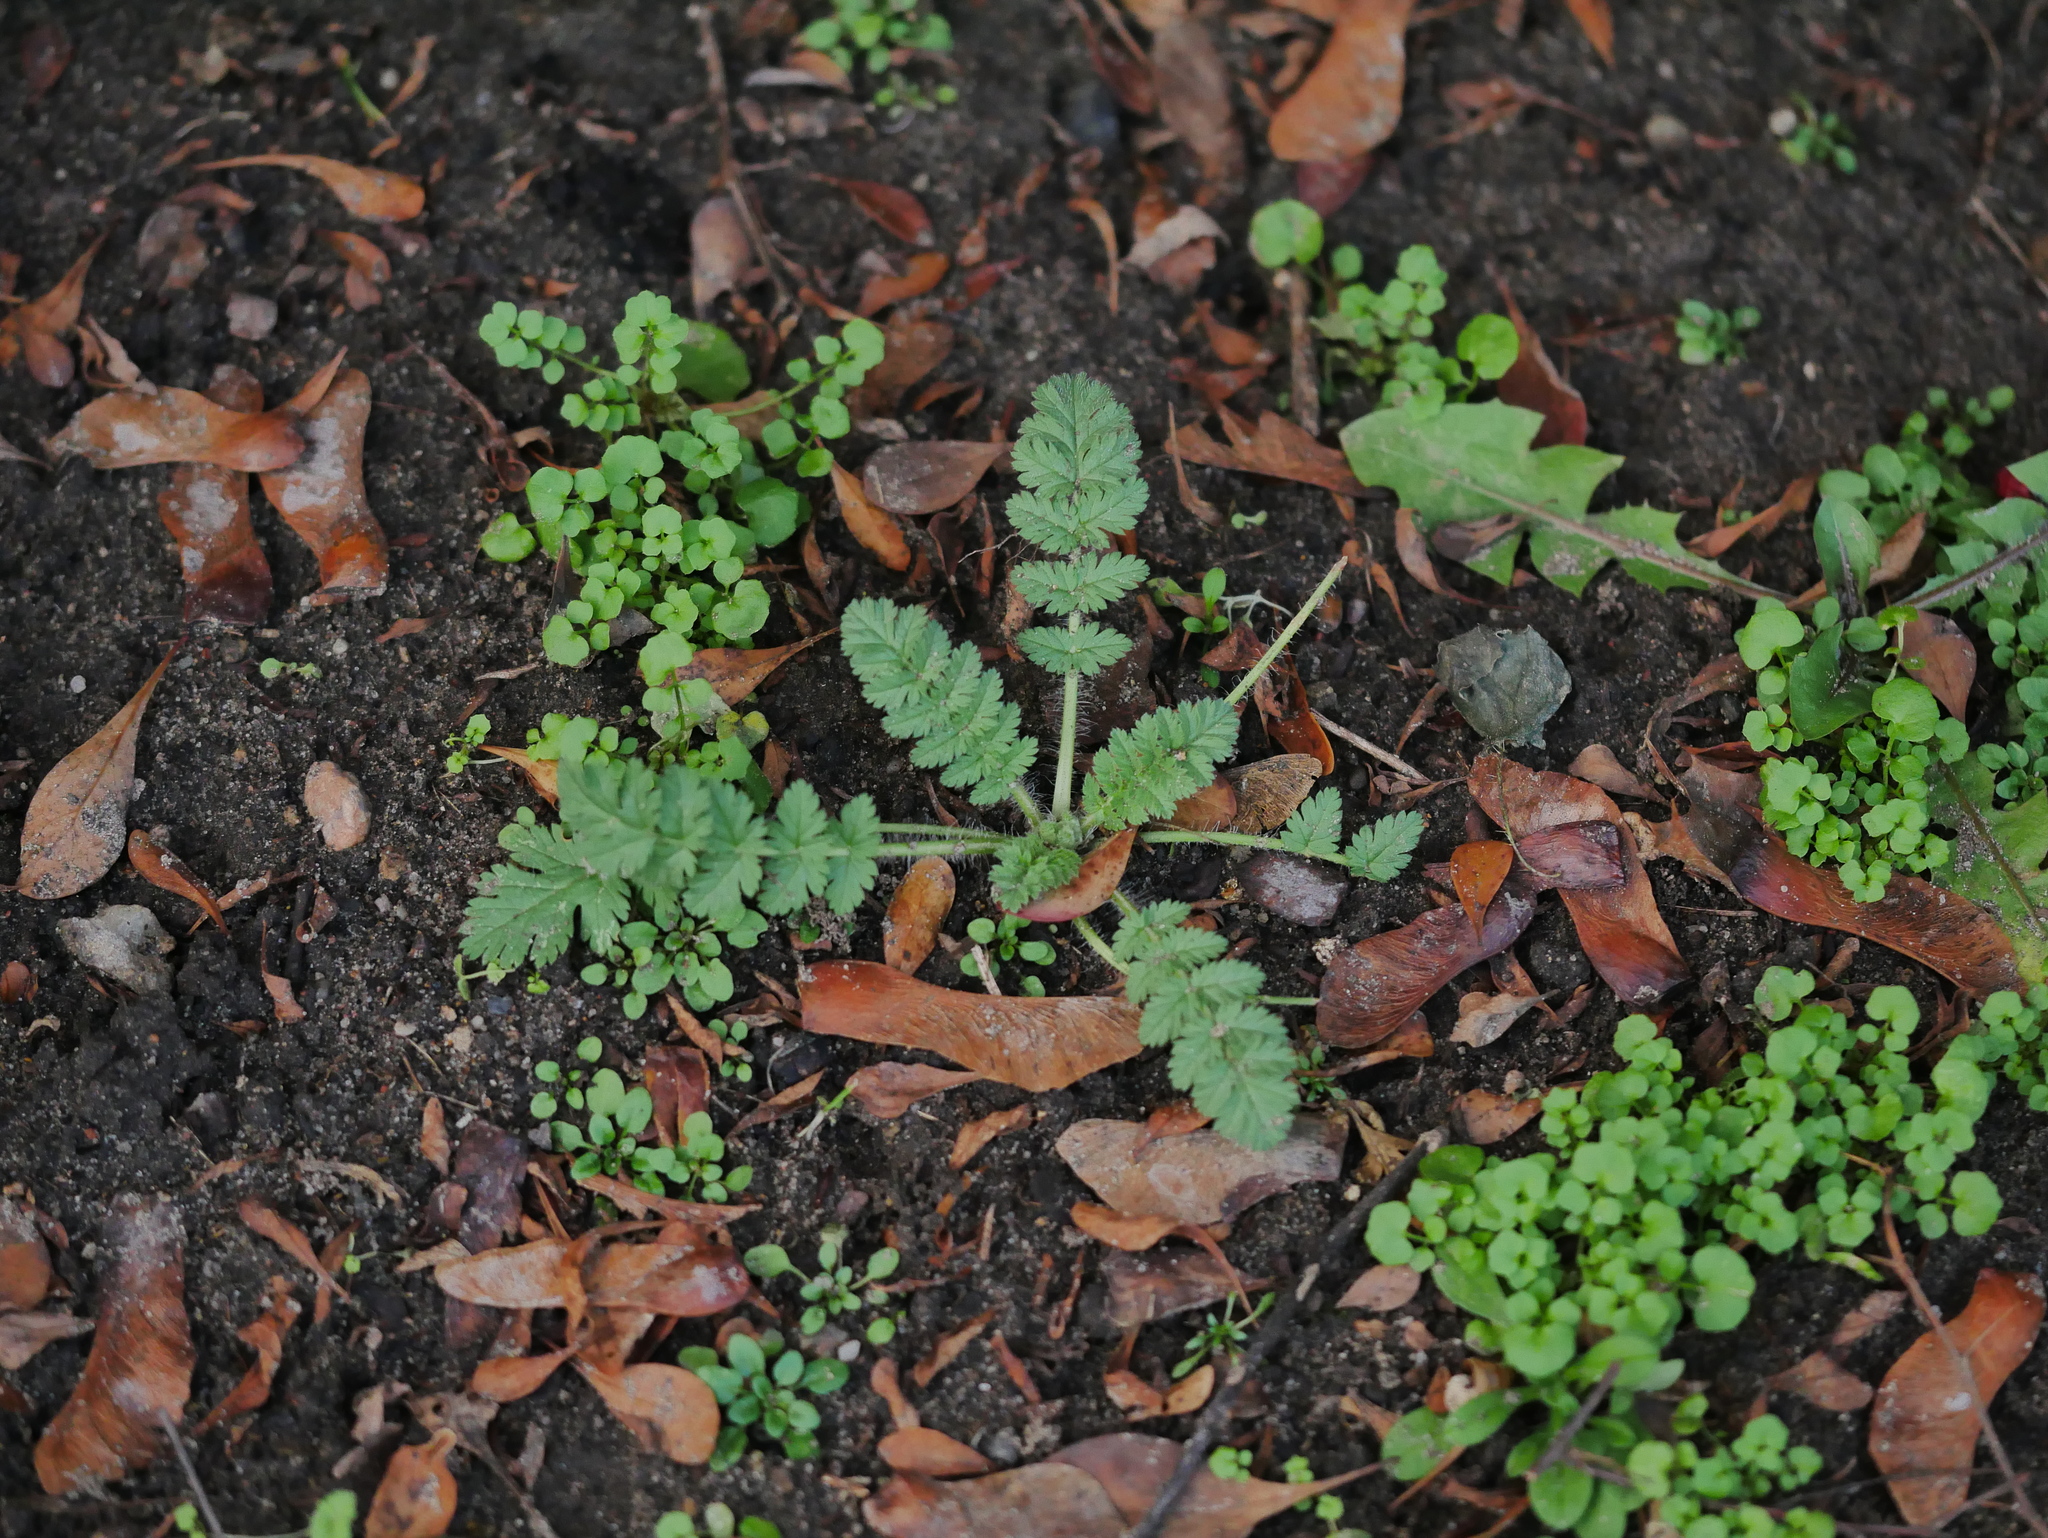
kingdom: Plantae
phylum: Tracheophyta
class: Magnoliopsida
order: Geraniales
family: Geraniaceae
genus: Erodium
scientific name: Erodium cicutarium
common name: Common stork's-bill
